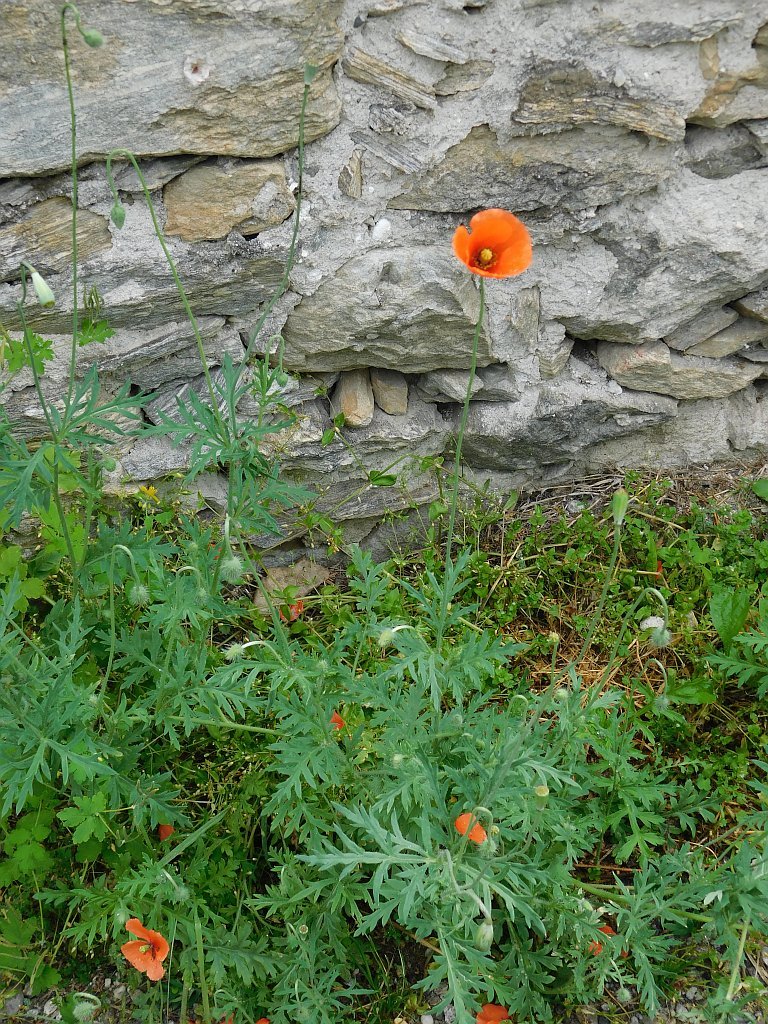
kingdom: Plantae
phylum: Tracheophyta
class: Magnoliopsida
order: Ranunculales
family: Papaveraceae
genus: Papaver
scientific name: Papaver dubium
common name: Long-headed poppy
